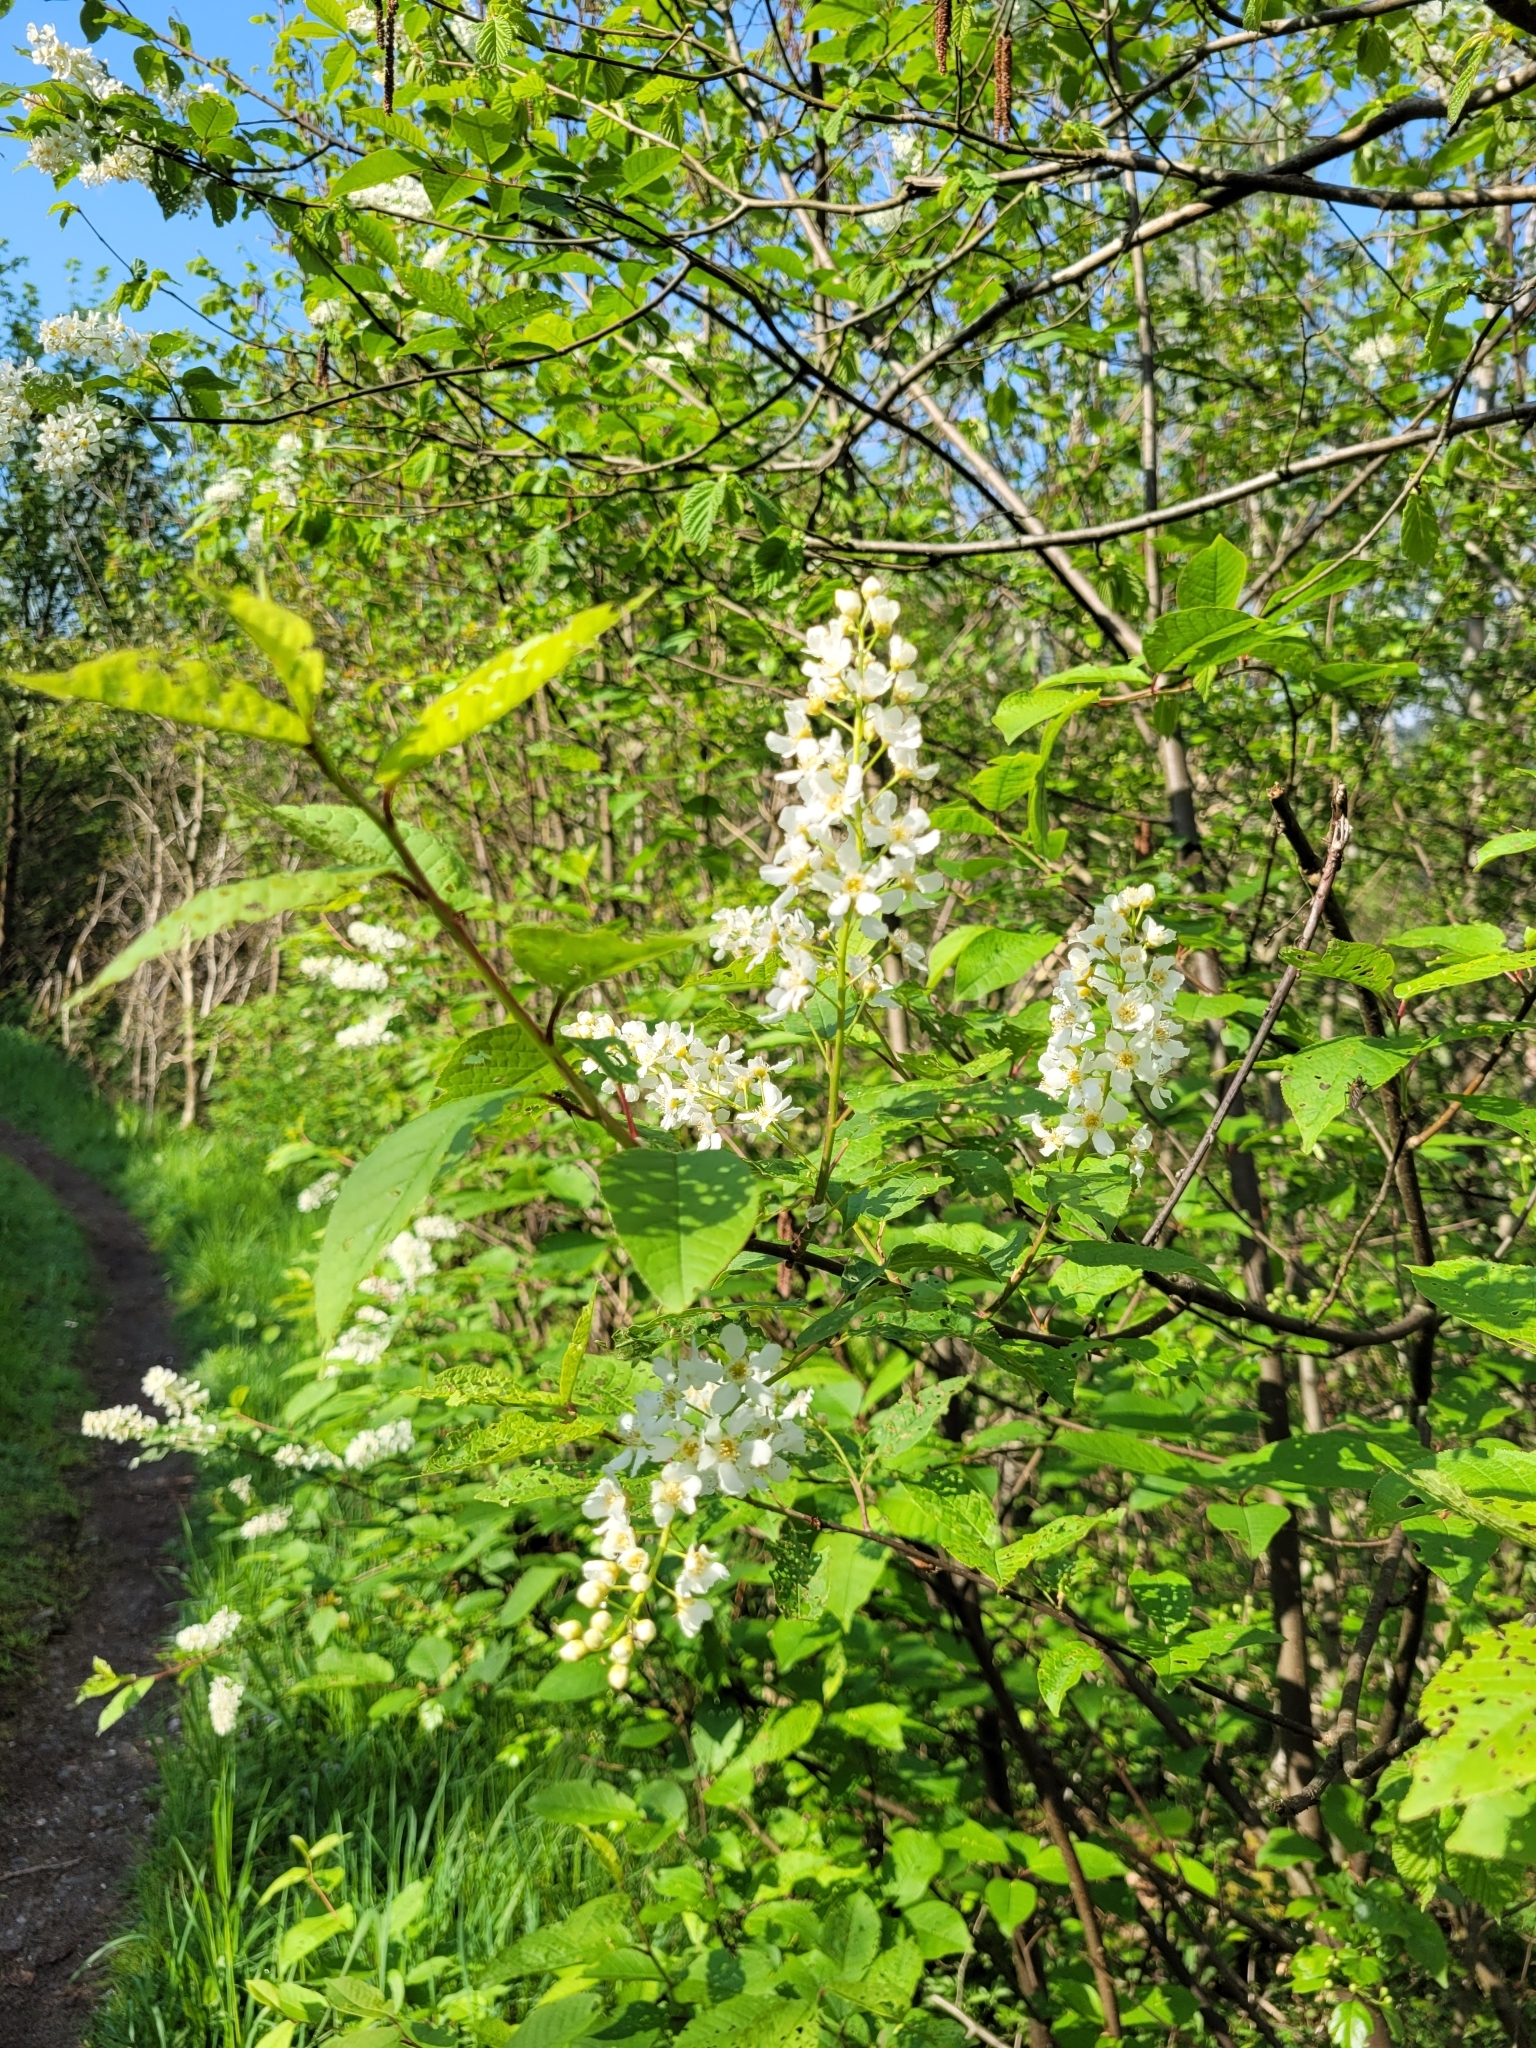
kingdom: Plantae
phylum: Tracheophyta
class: Magnoliopsida
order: Rosales
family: Rosaceae
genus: Prunus
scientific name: Prunus padus
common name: Bird cherry
